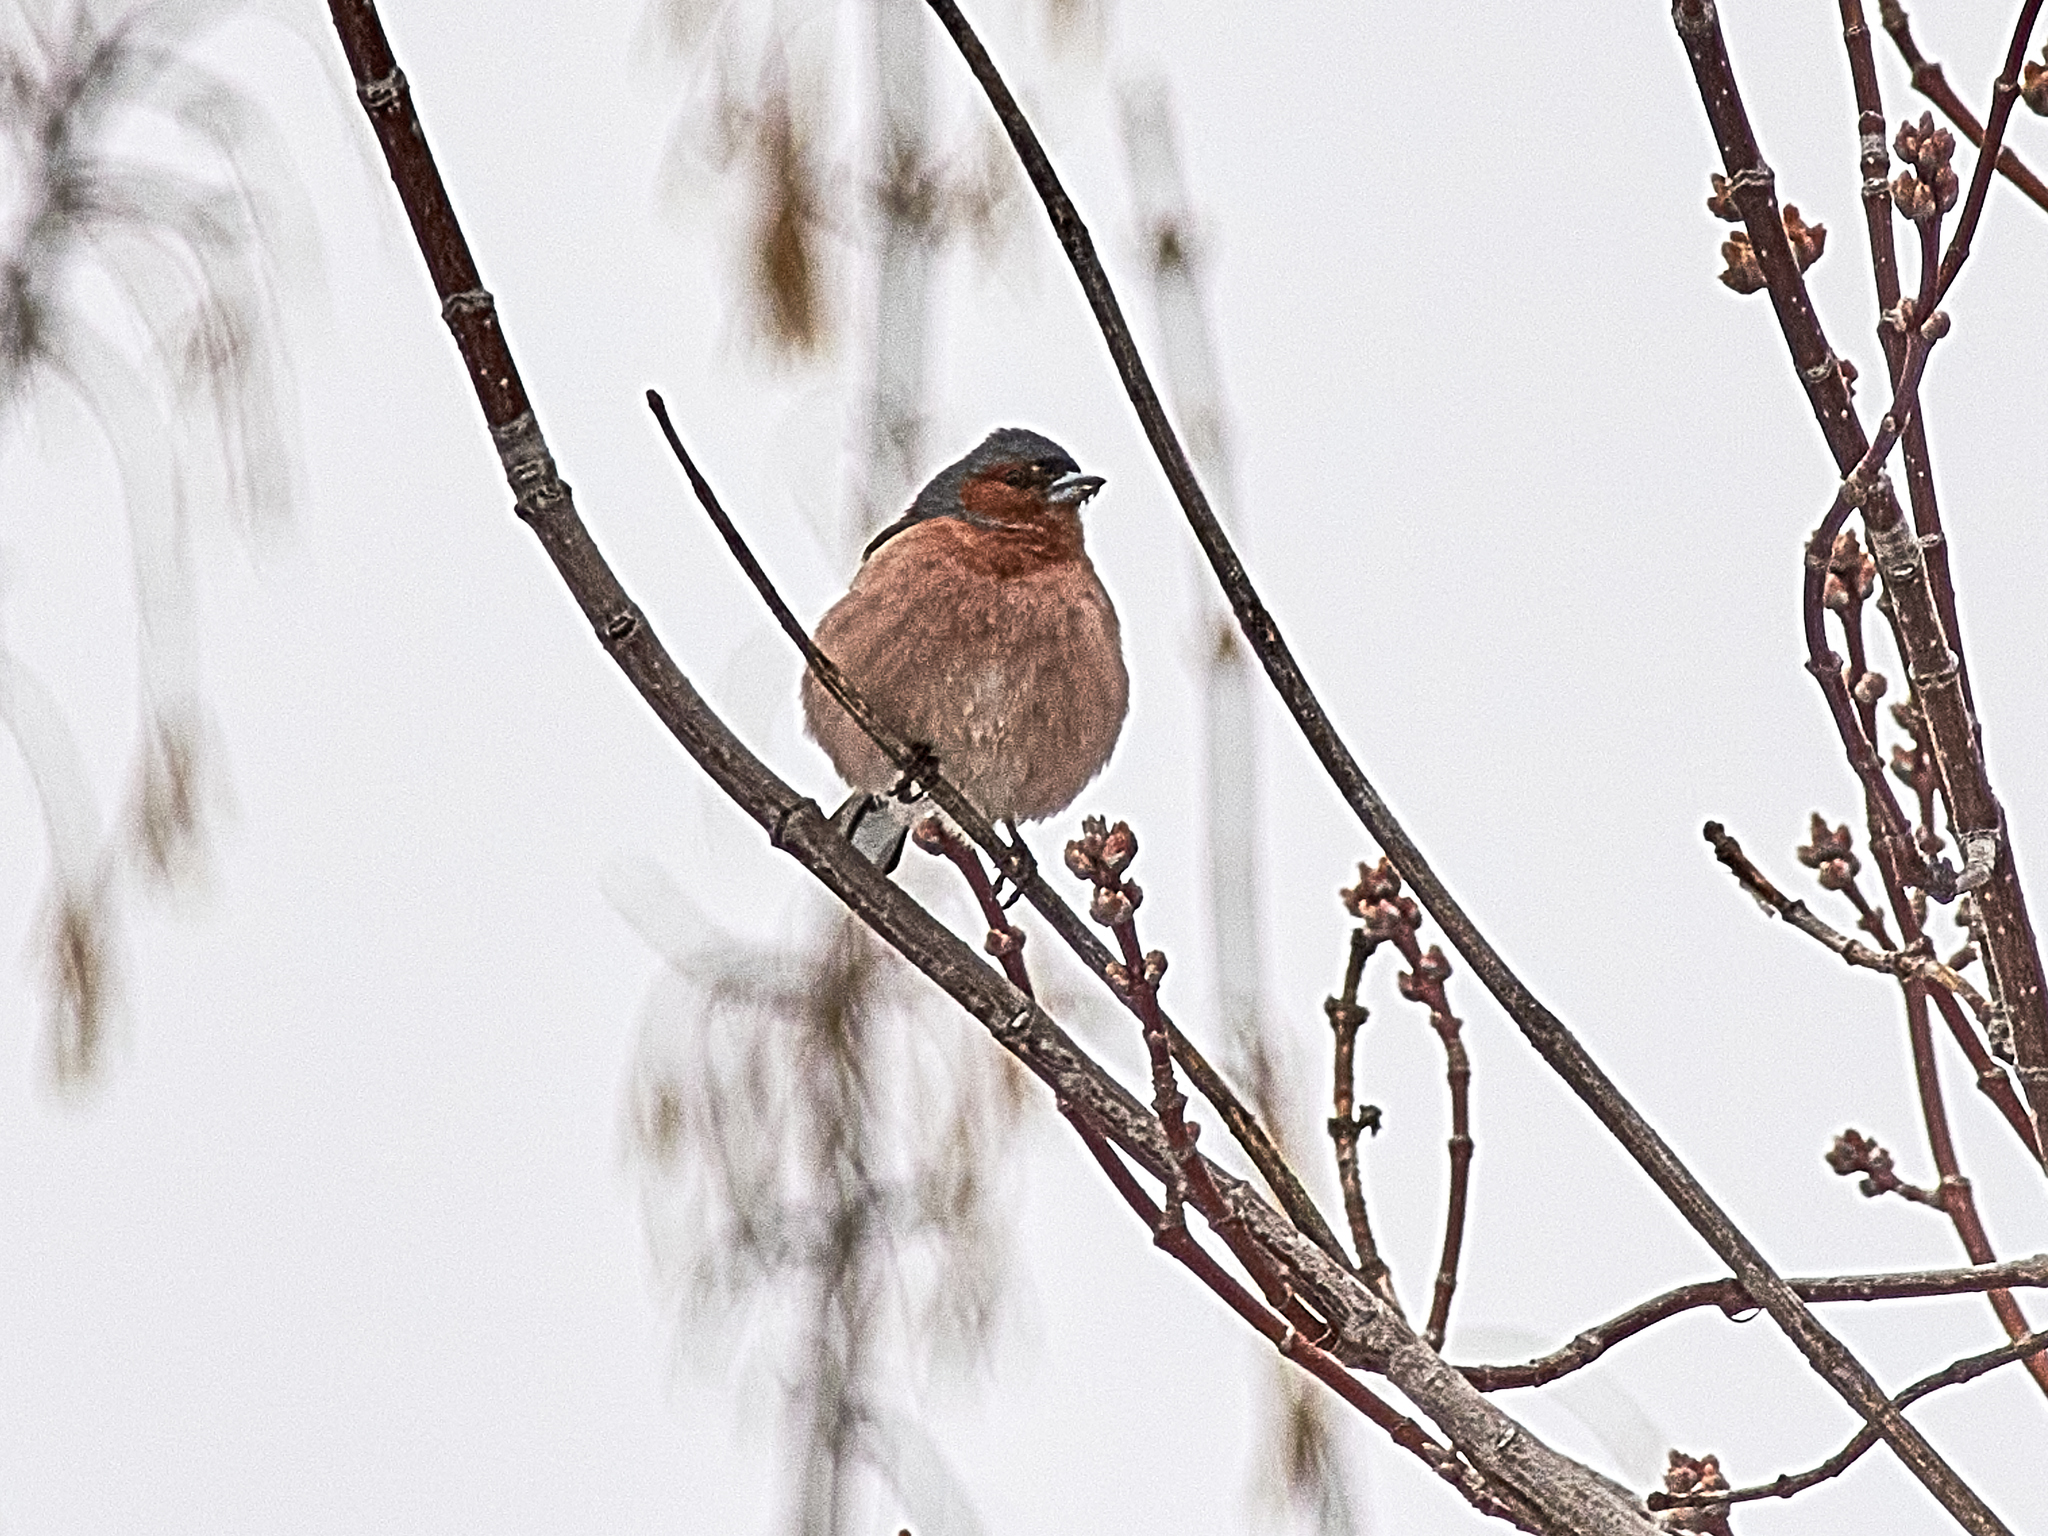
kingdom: Animalia
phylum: Chordata
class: Aves
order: Passeriformes
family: Fringillidae
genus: Fringilla
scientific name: Fringilla coelebs
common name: Common chaffinch
